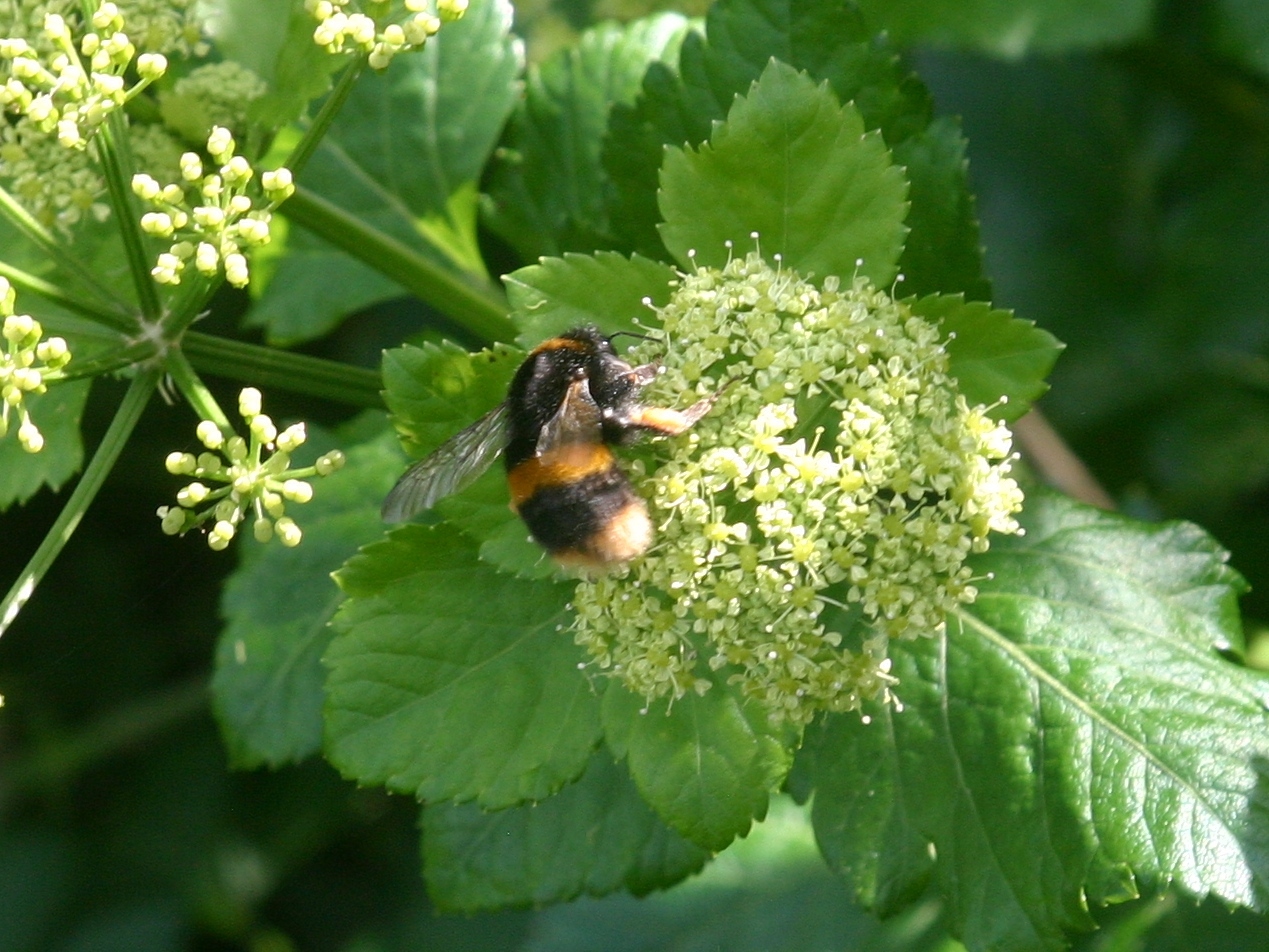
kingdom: Animalia
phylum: Arthropoda
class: Insecta
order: Hymenoptera
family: Apidae
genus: Bombus
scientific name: Bombus terrestris
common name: Buff-tailed bumblebee
